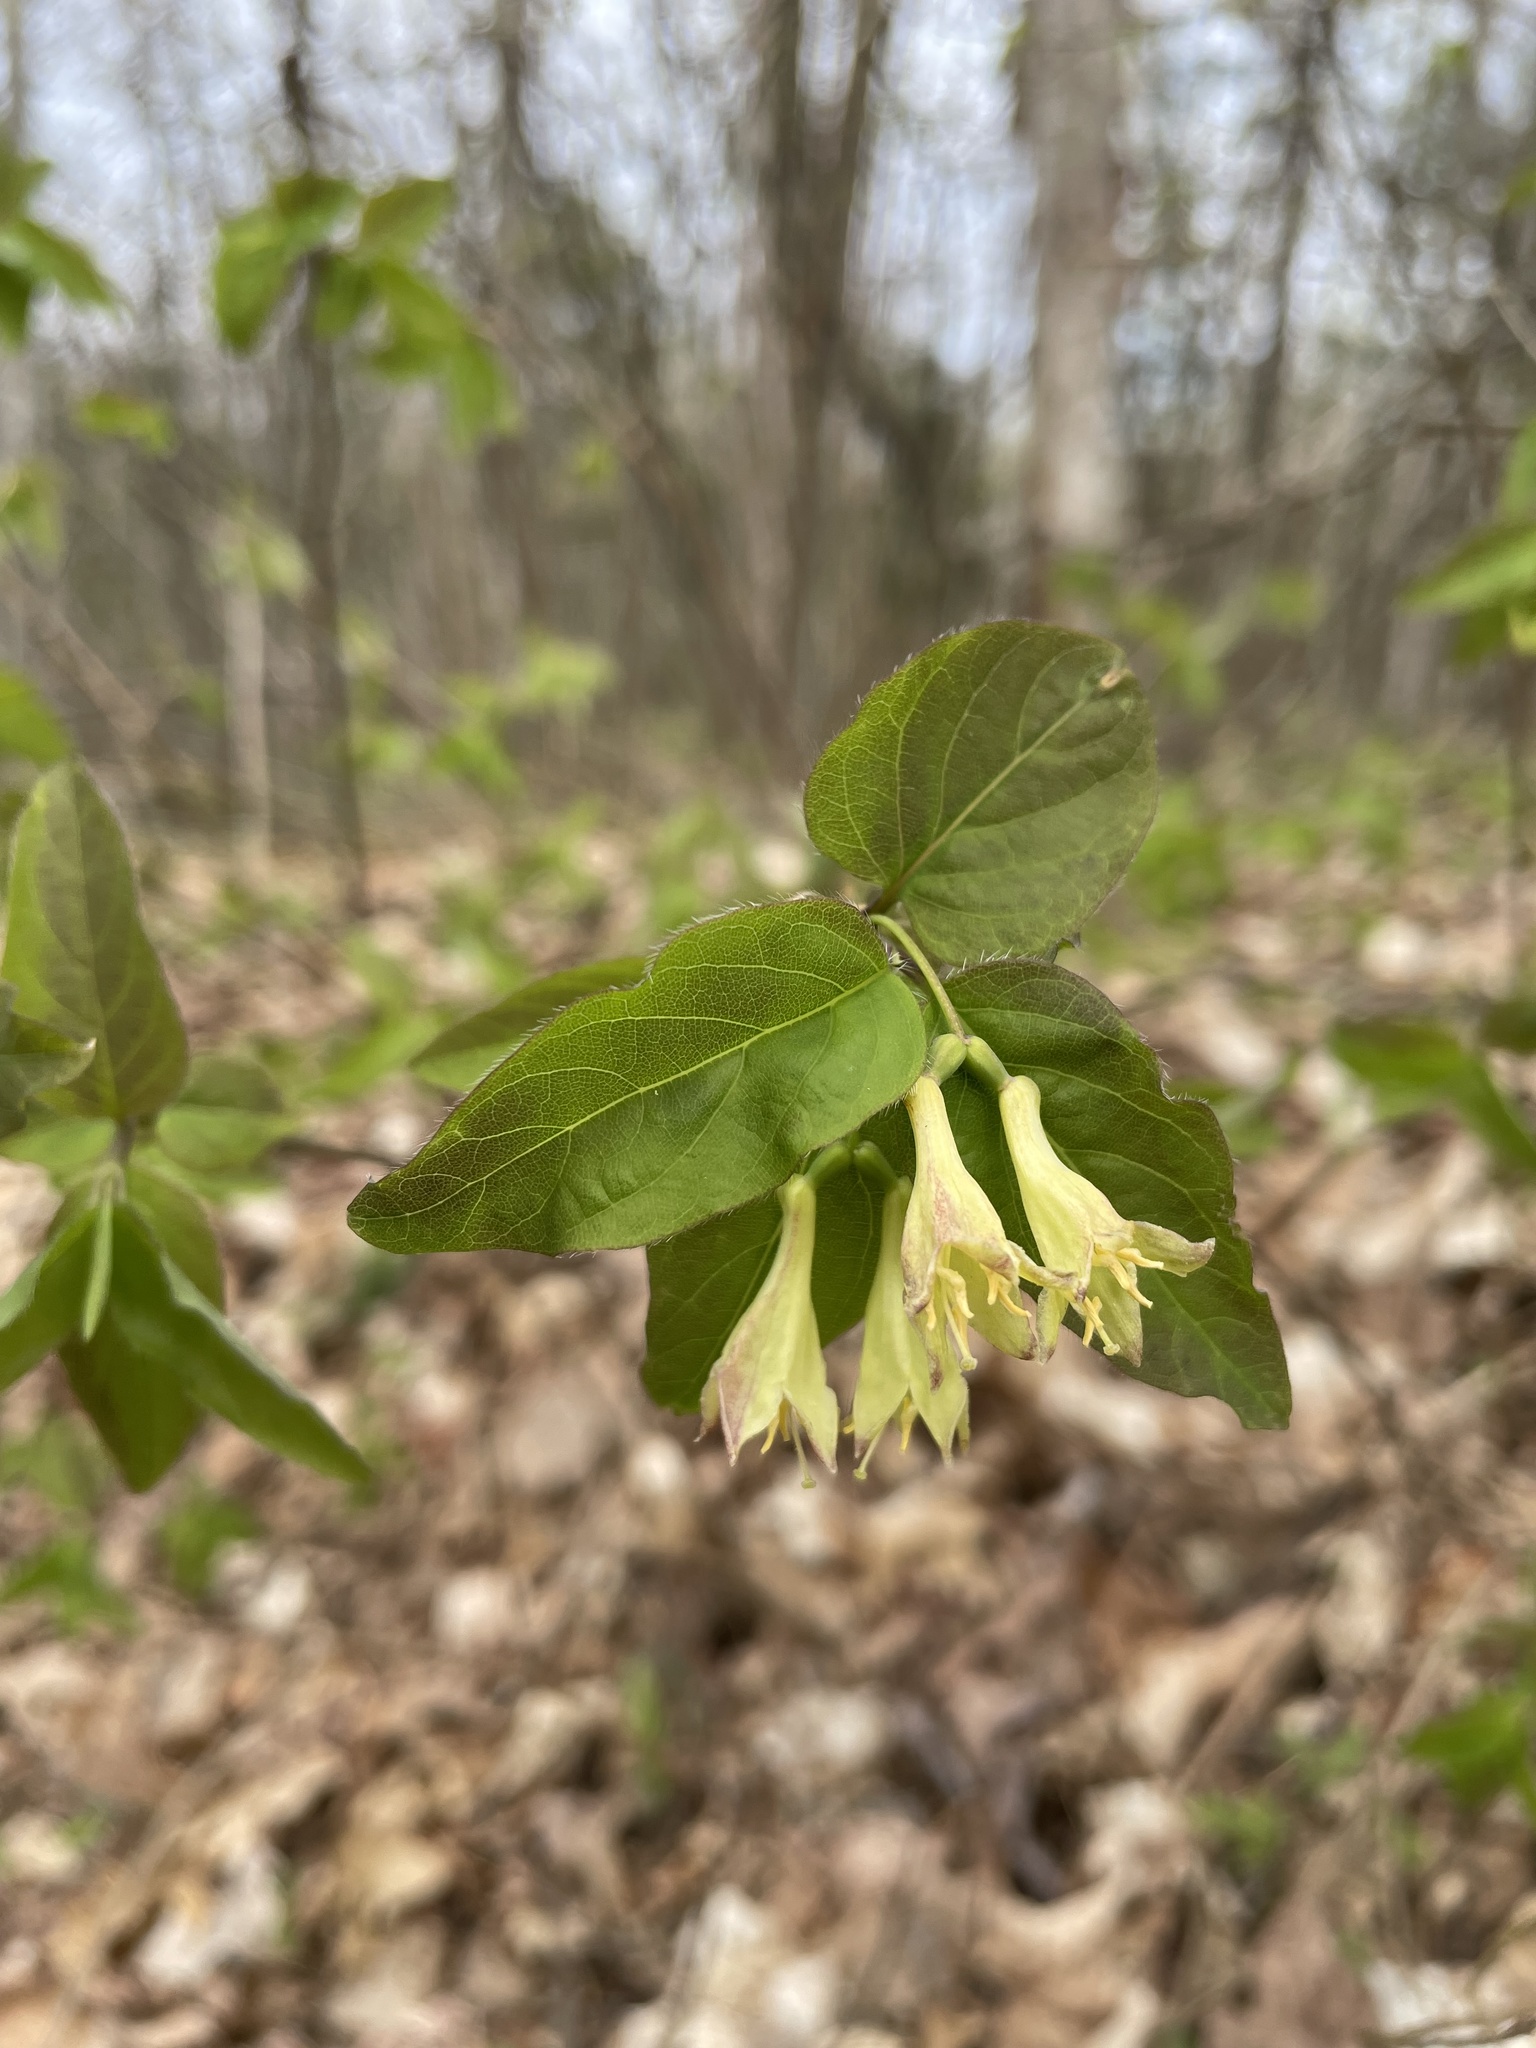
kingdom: Plantae
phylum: Tracheophyta
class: Magnoliopsida
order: Dipsacales
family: Caprifoliaceae
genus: Lonicera
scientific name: Lonicera canadensis
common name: American fly-honeysuckle
